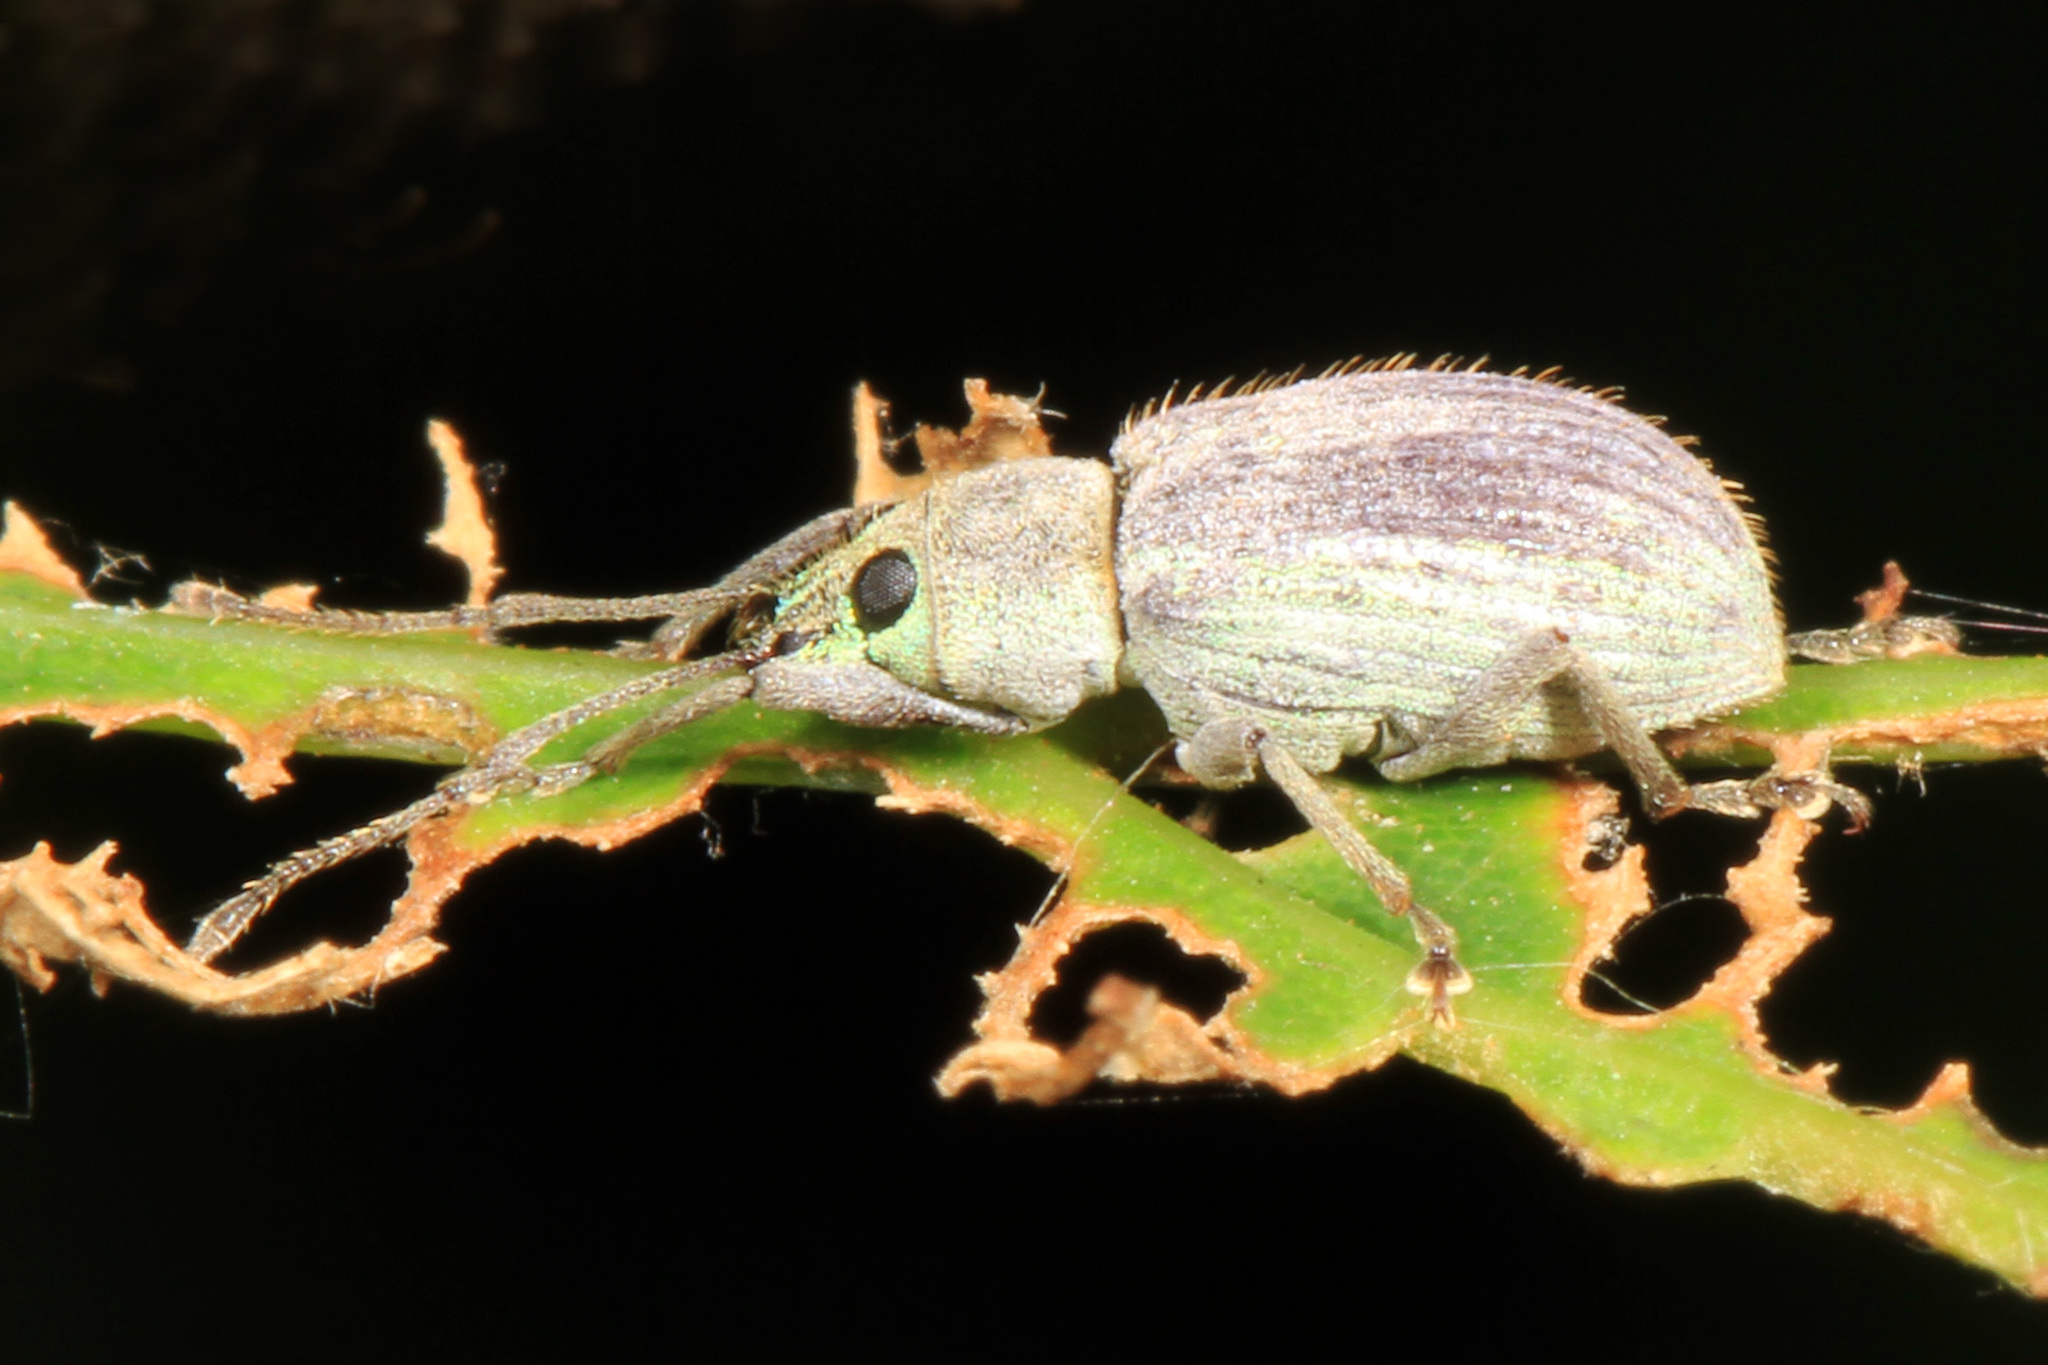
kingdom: Animalia
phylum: Arthropoda
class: Insecta
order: Coleoptera
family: Curculionidae
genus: Cyrtepistomus
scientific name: Cyrtepistomus castaneus
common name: Weevil
